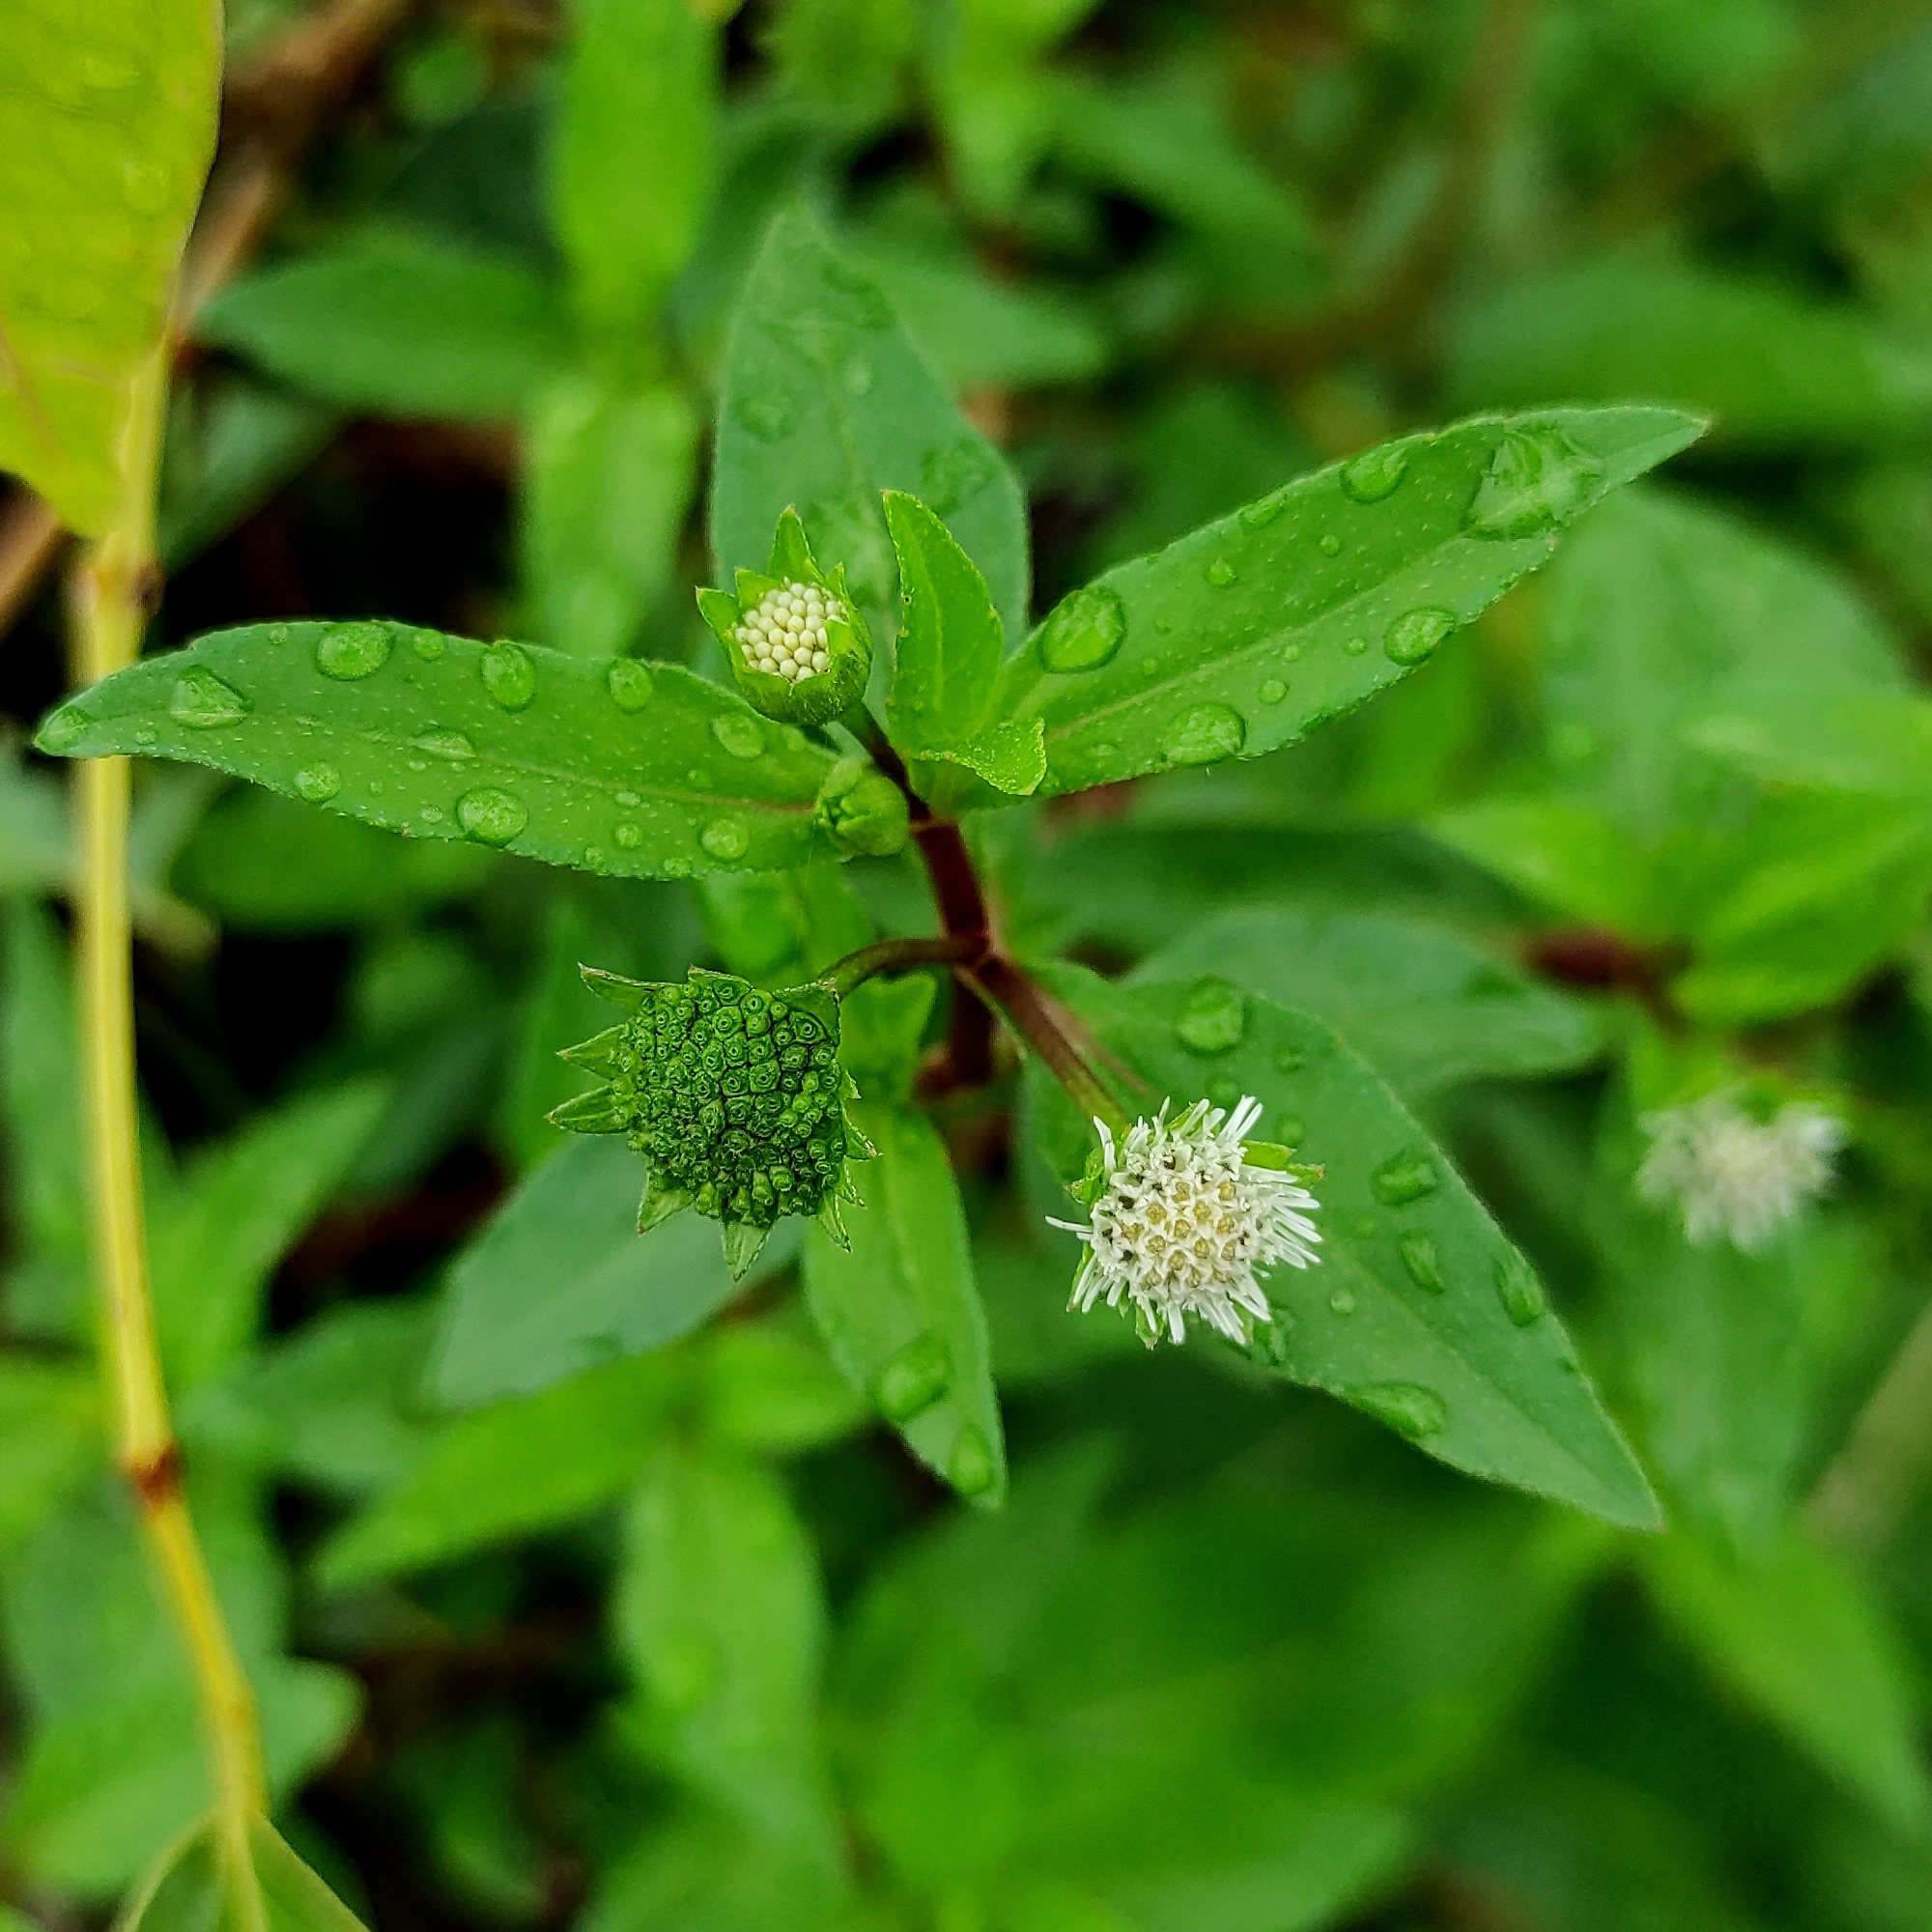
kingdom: Plantae
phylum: Tracheophyta
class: Magnoliopsida
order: Asterales
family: Asteraceae
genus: Eclipta
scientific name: Eclipta prostrata
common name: False daisy
